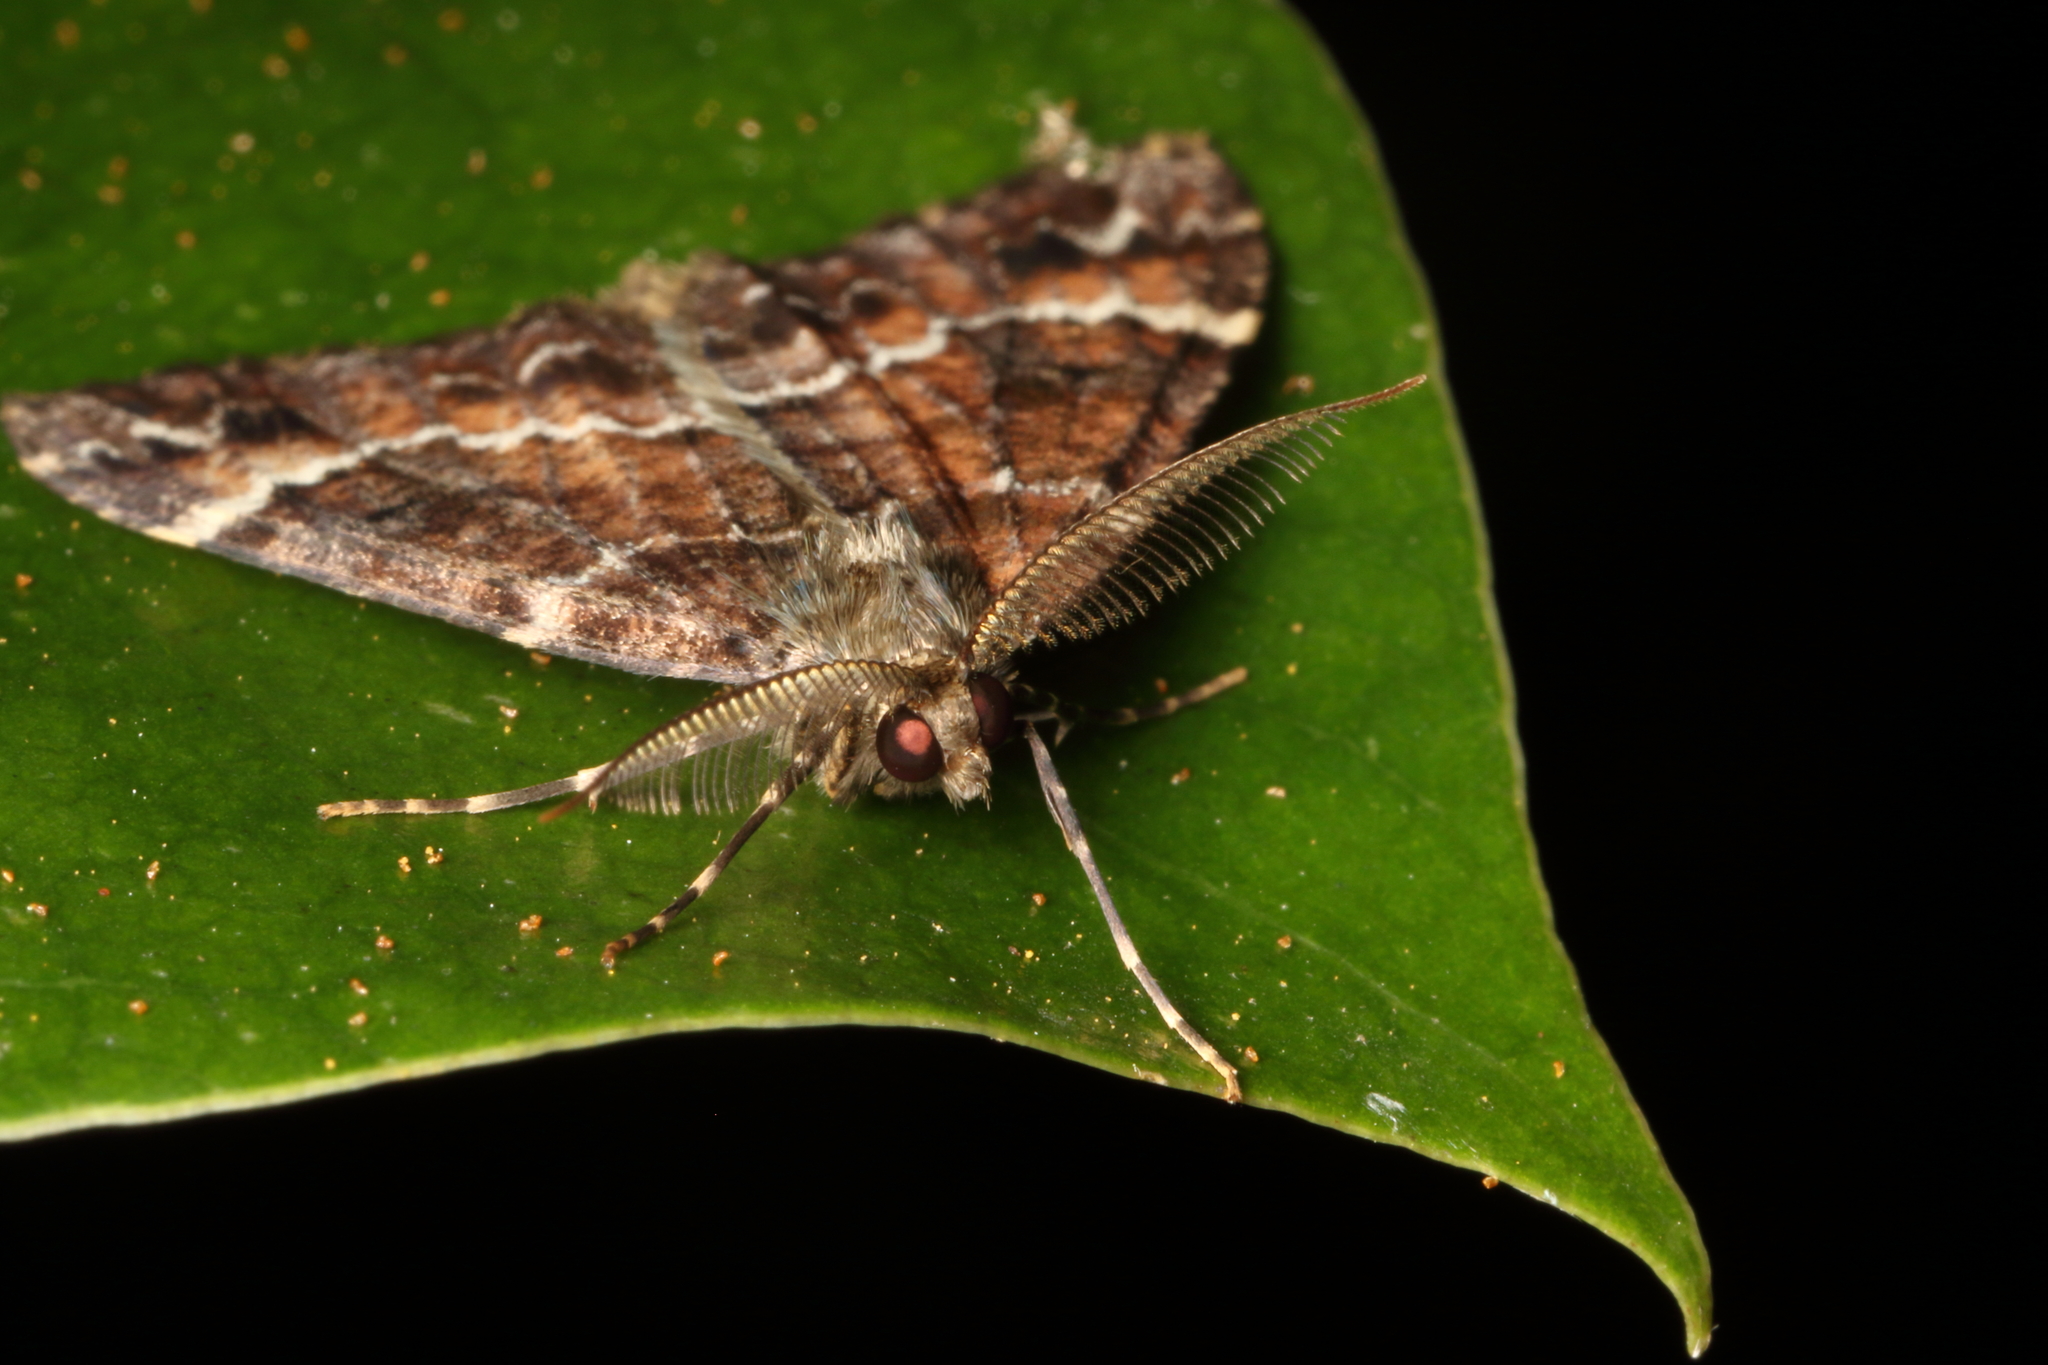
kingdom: Animalia
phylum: Arthropoda
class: Insecta
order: Lepidoptera
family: Geometridae
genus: Pseudocoremia
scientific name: Pseudocoremia productata
